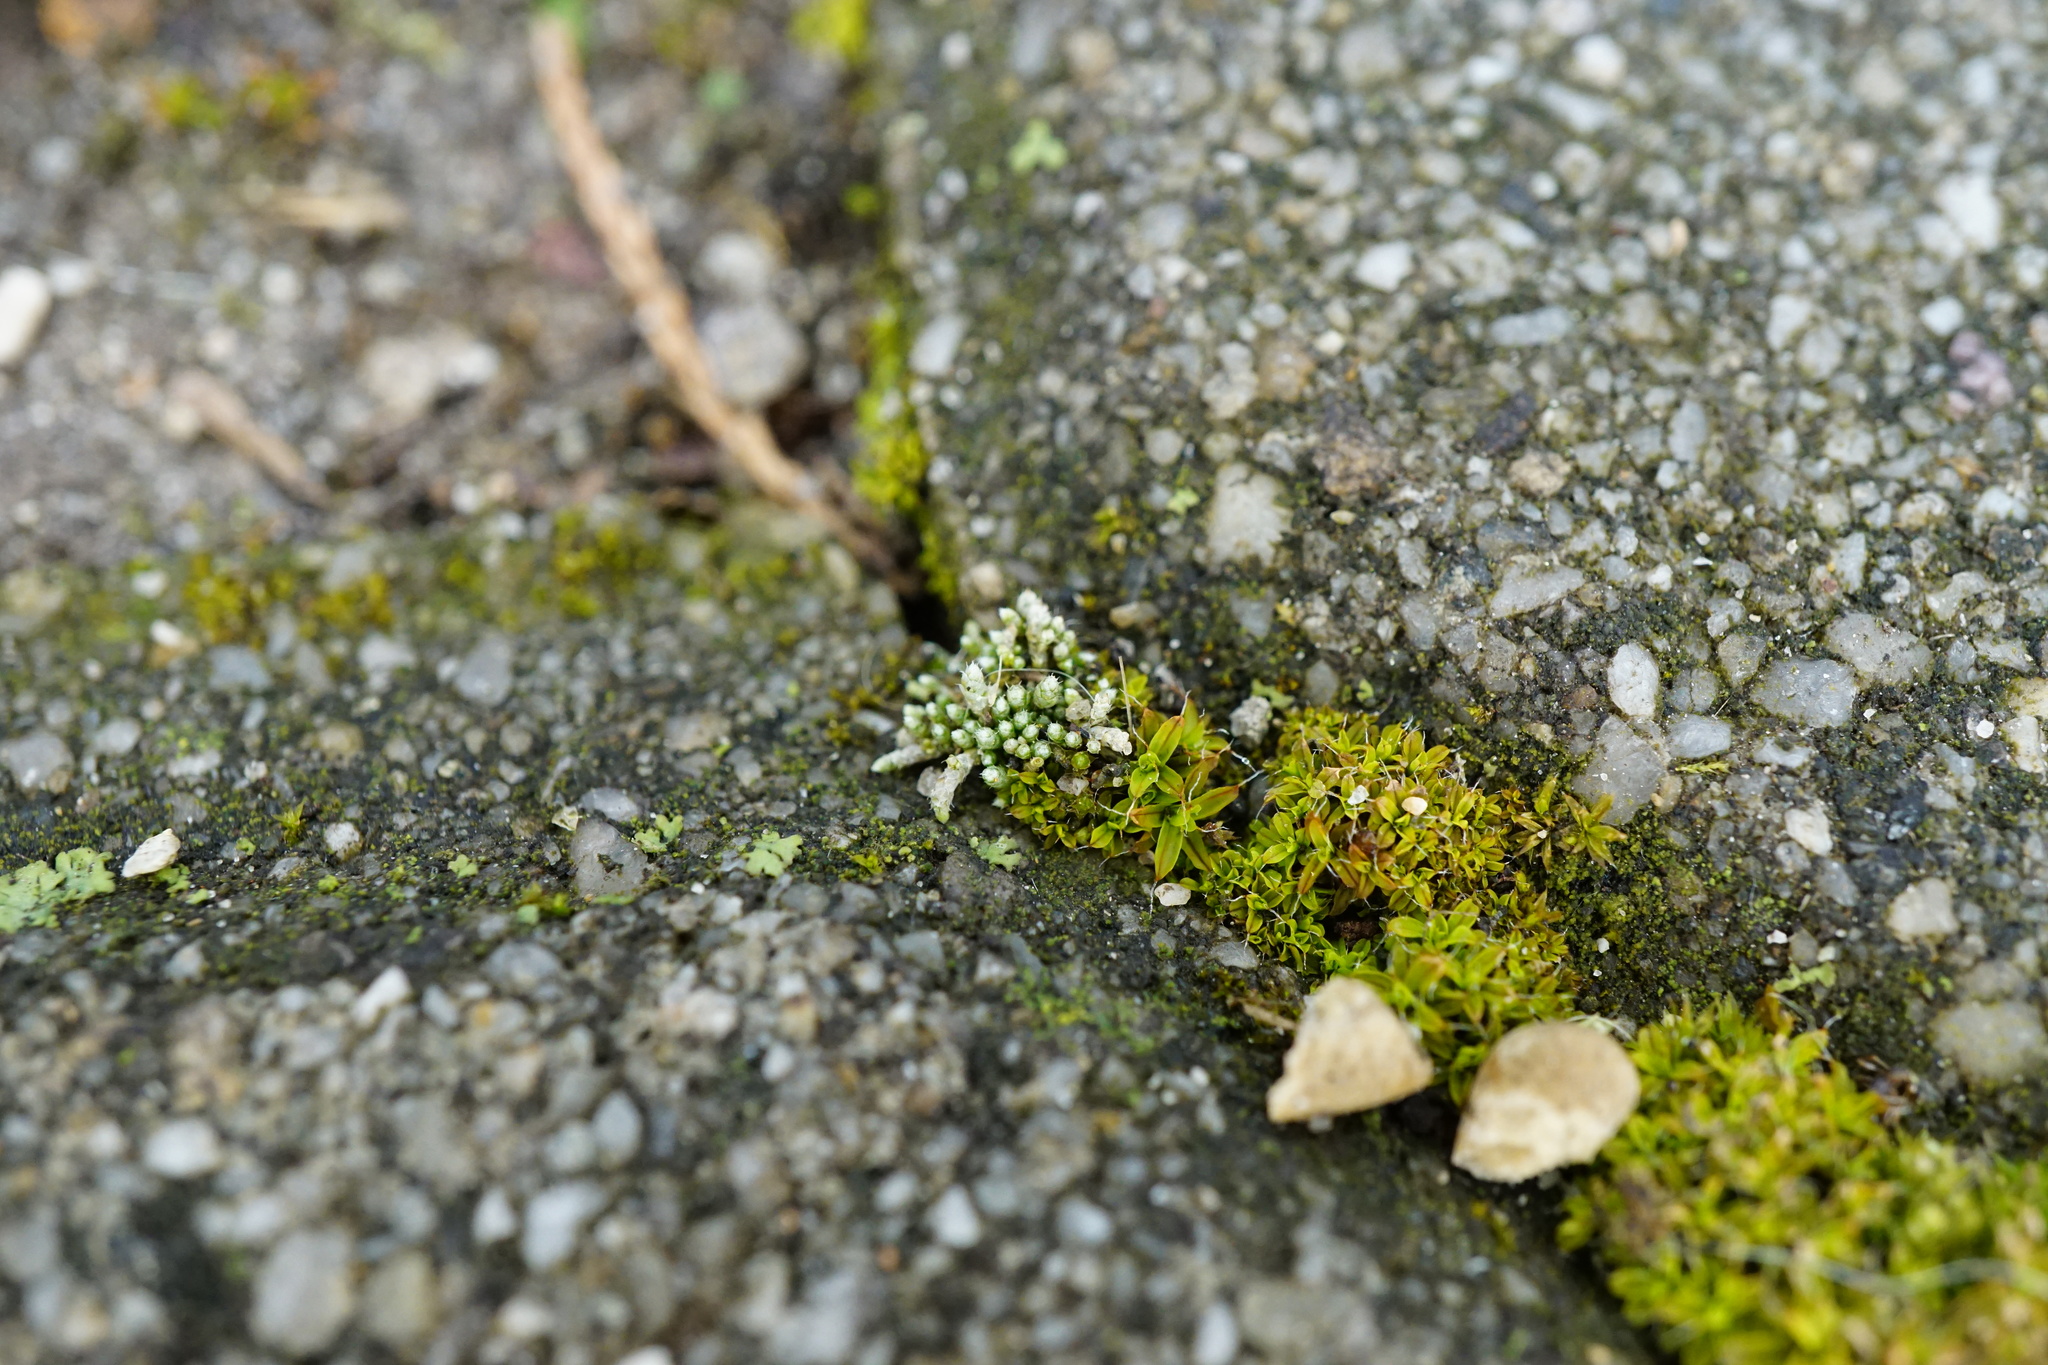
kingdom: Plantae
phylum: Bryophyta
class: Bryopsida
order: Bryales
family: Bryaceae
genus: Bryum
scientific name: Bryum argenteum
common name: Silver-moss
